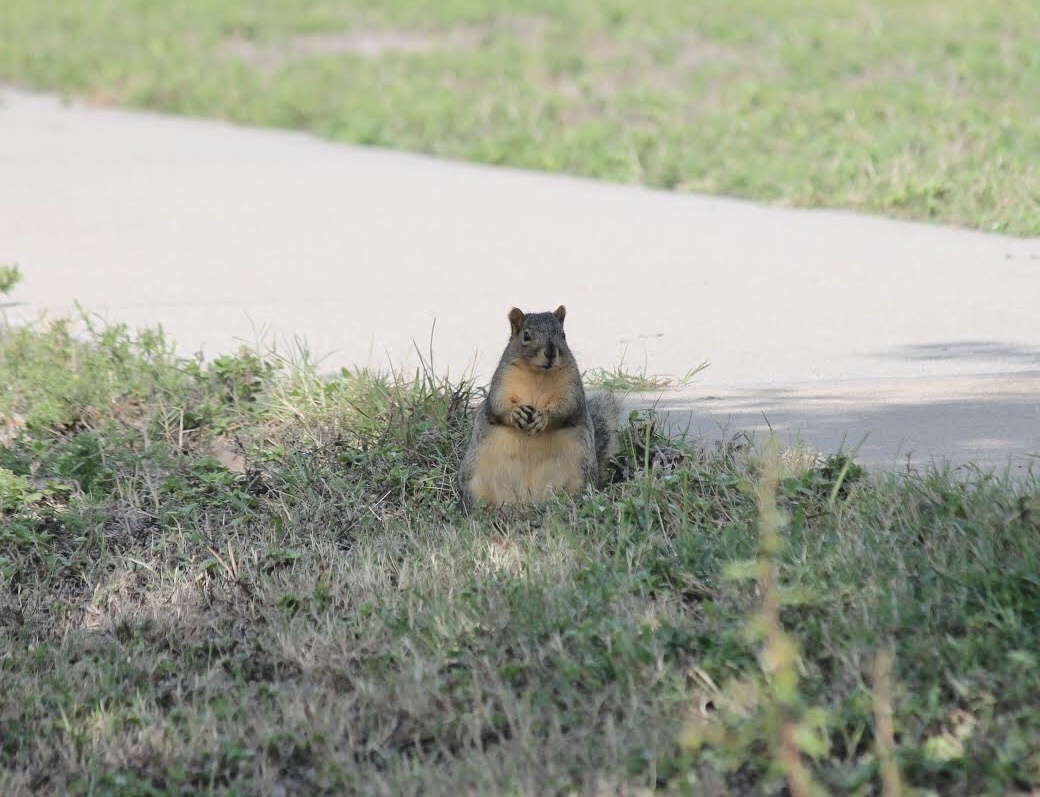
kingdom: Animalia
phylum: Chordata
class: Mammalia
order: Rodentia
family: Sciuridae
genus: Sciurus
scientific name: Sciurus niger
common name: Fox squirrel
